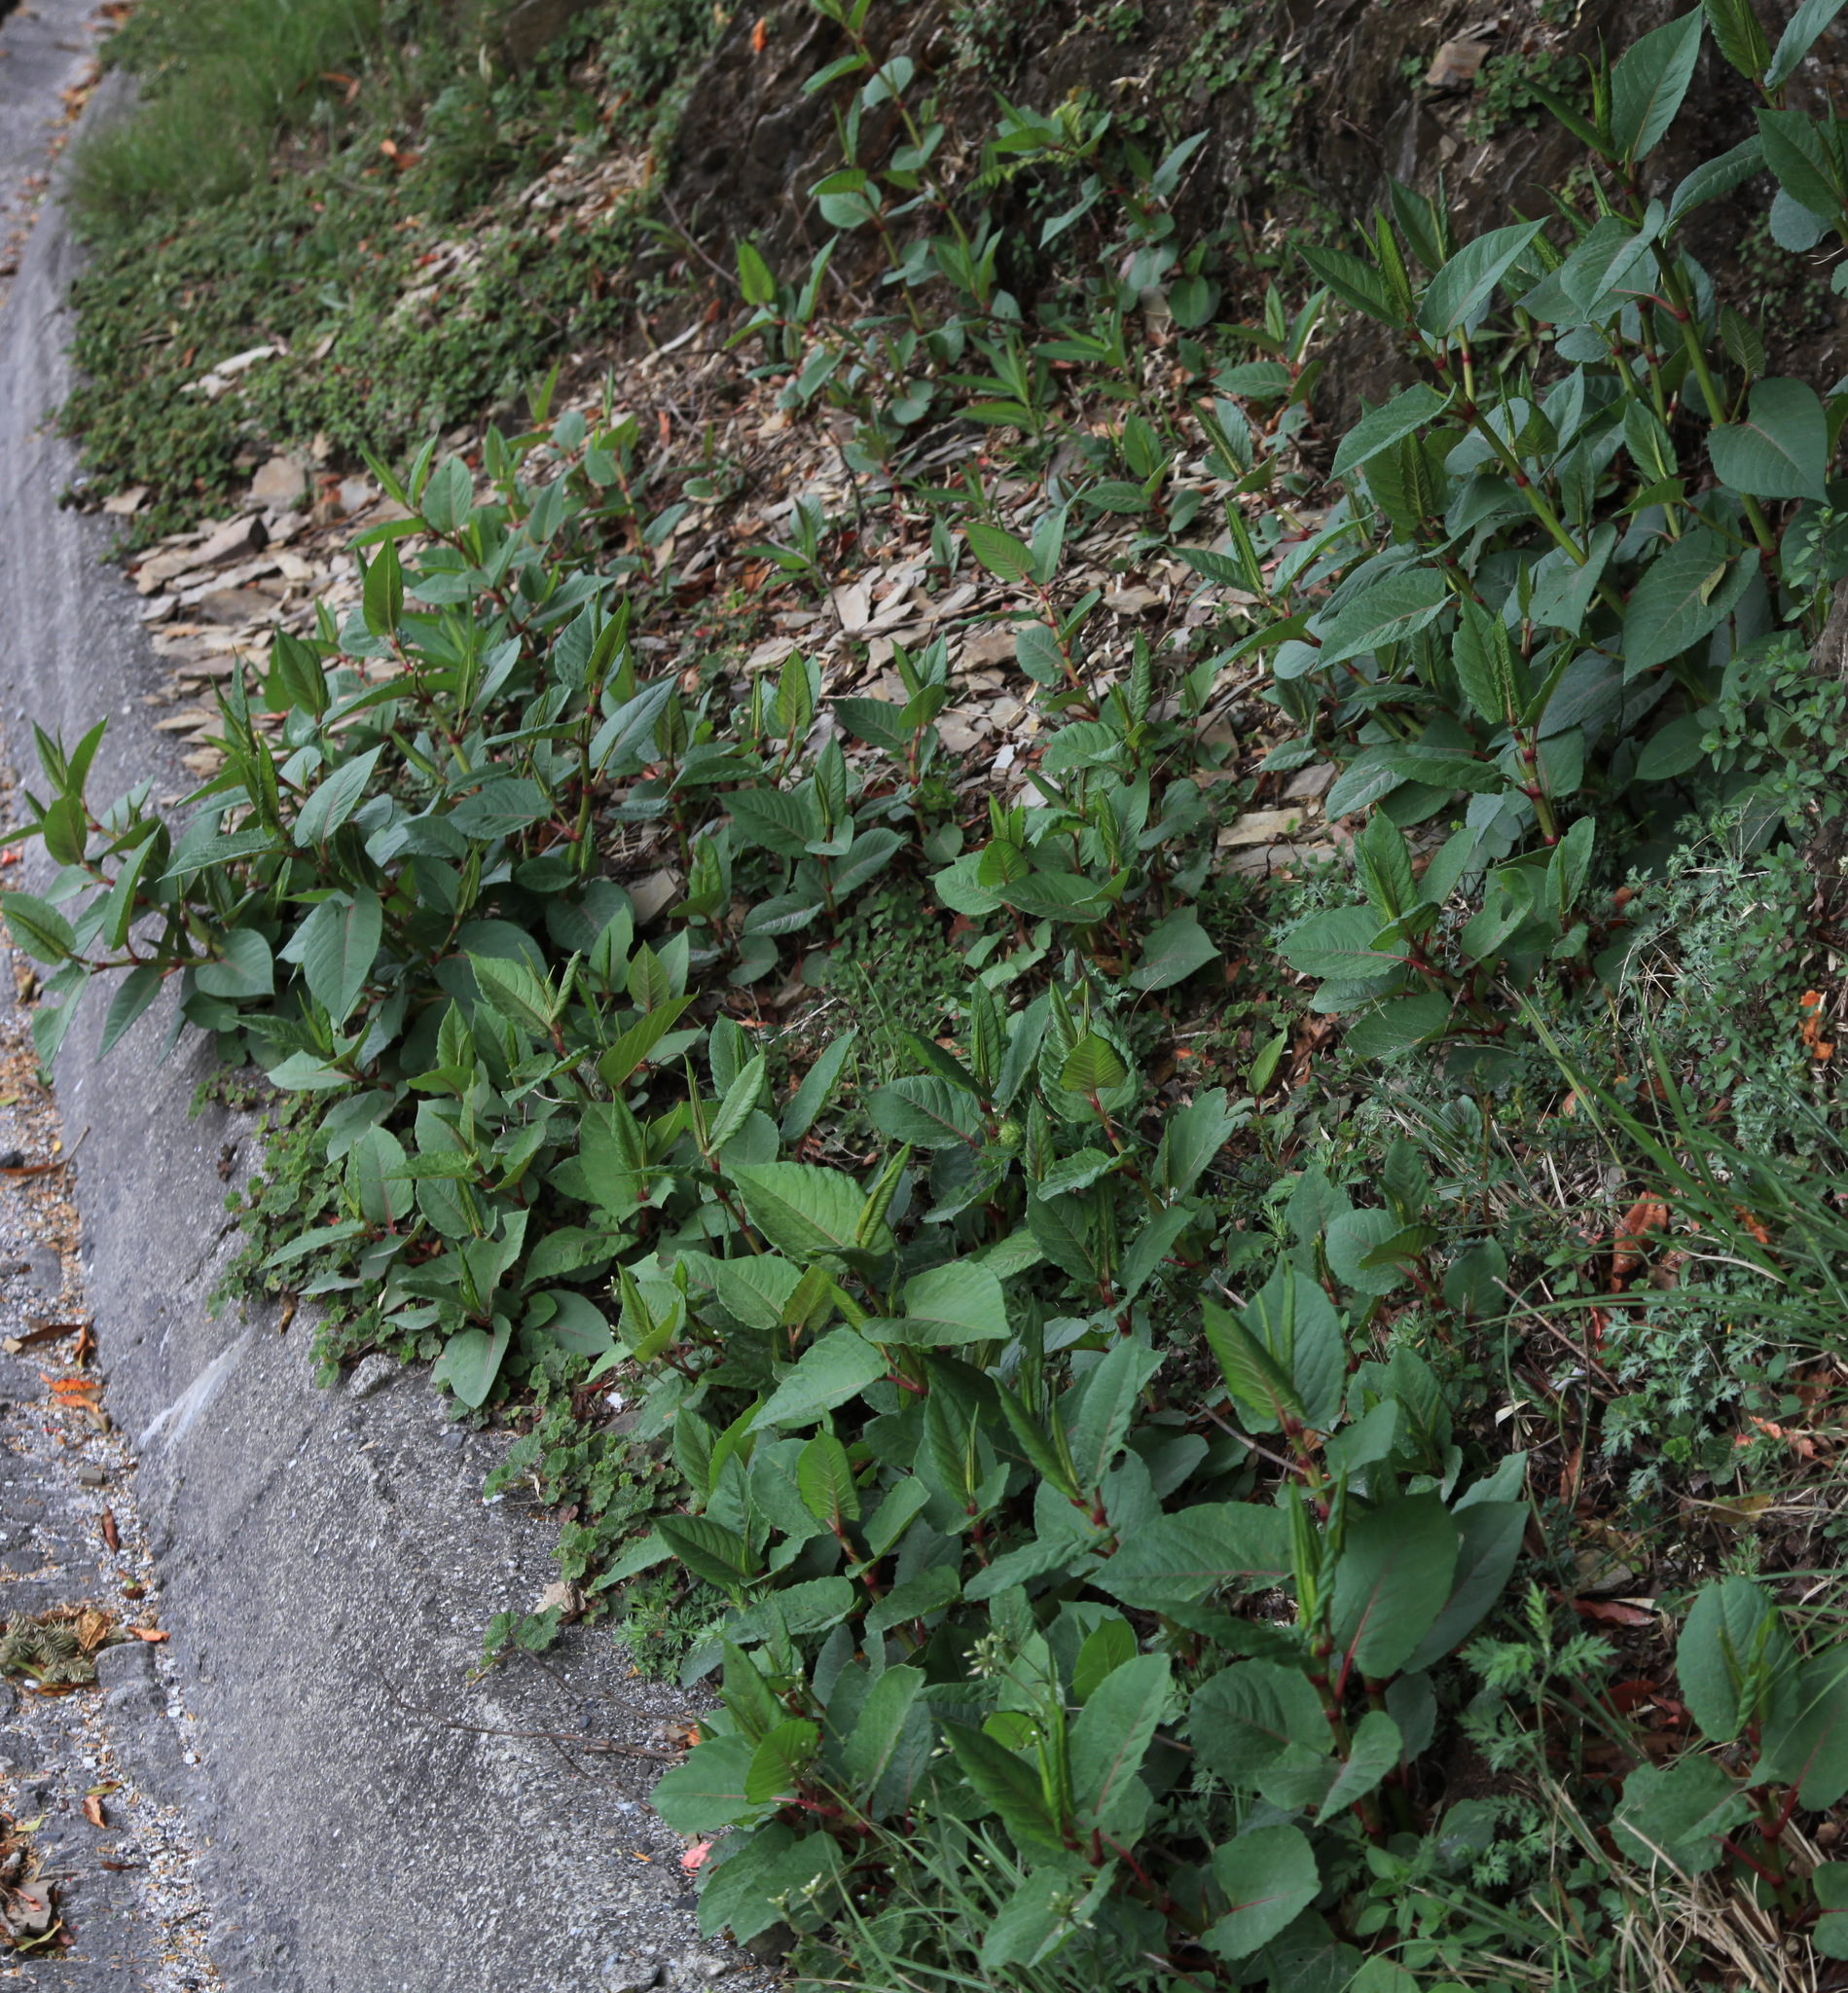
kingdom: Plantae
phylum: Tracheophyta
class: Magnoliopsida
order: Caryophyllales
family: Polygonaceae
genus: Reynoutria
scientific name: Reynoutria japonica
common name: Japanese knotweed
